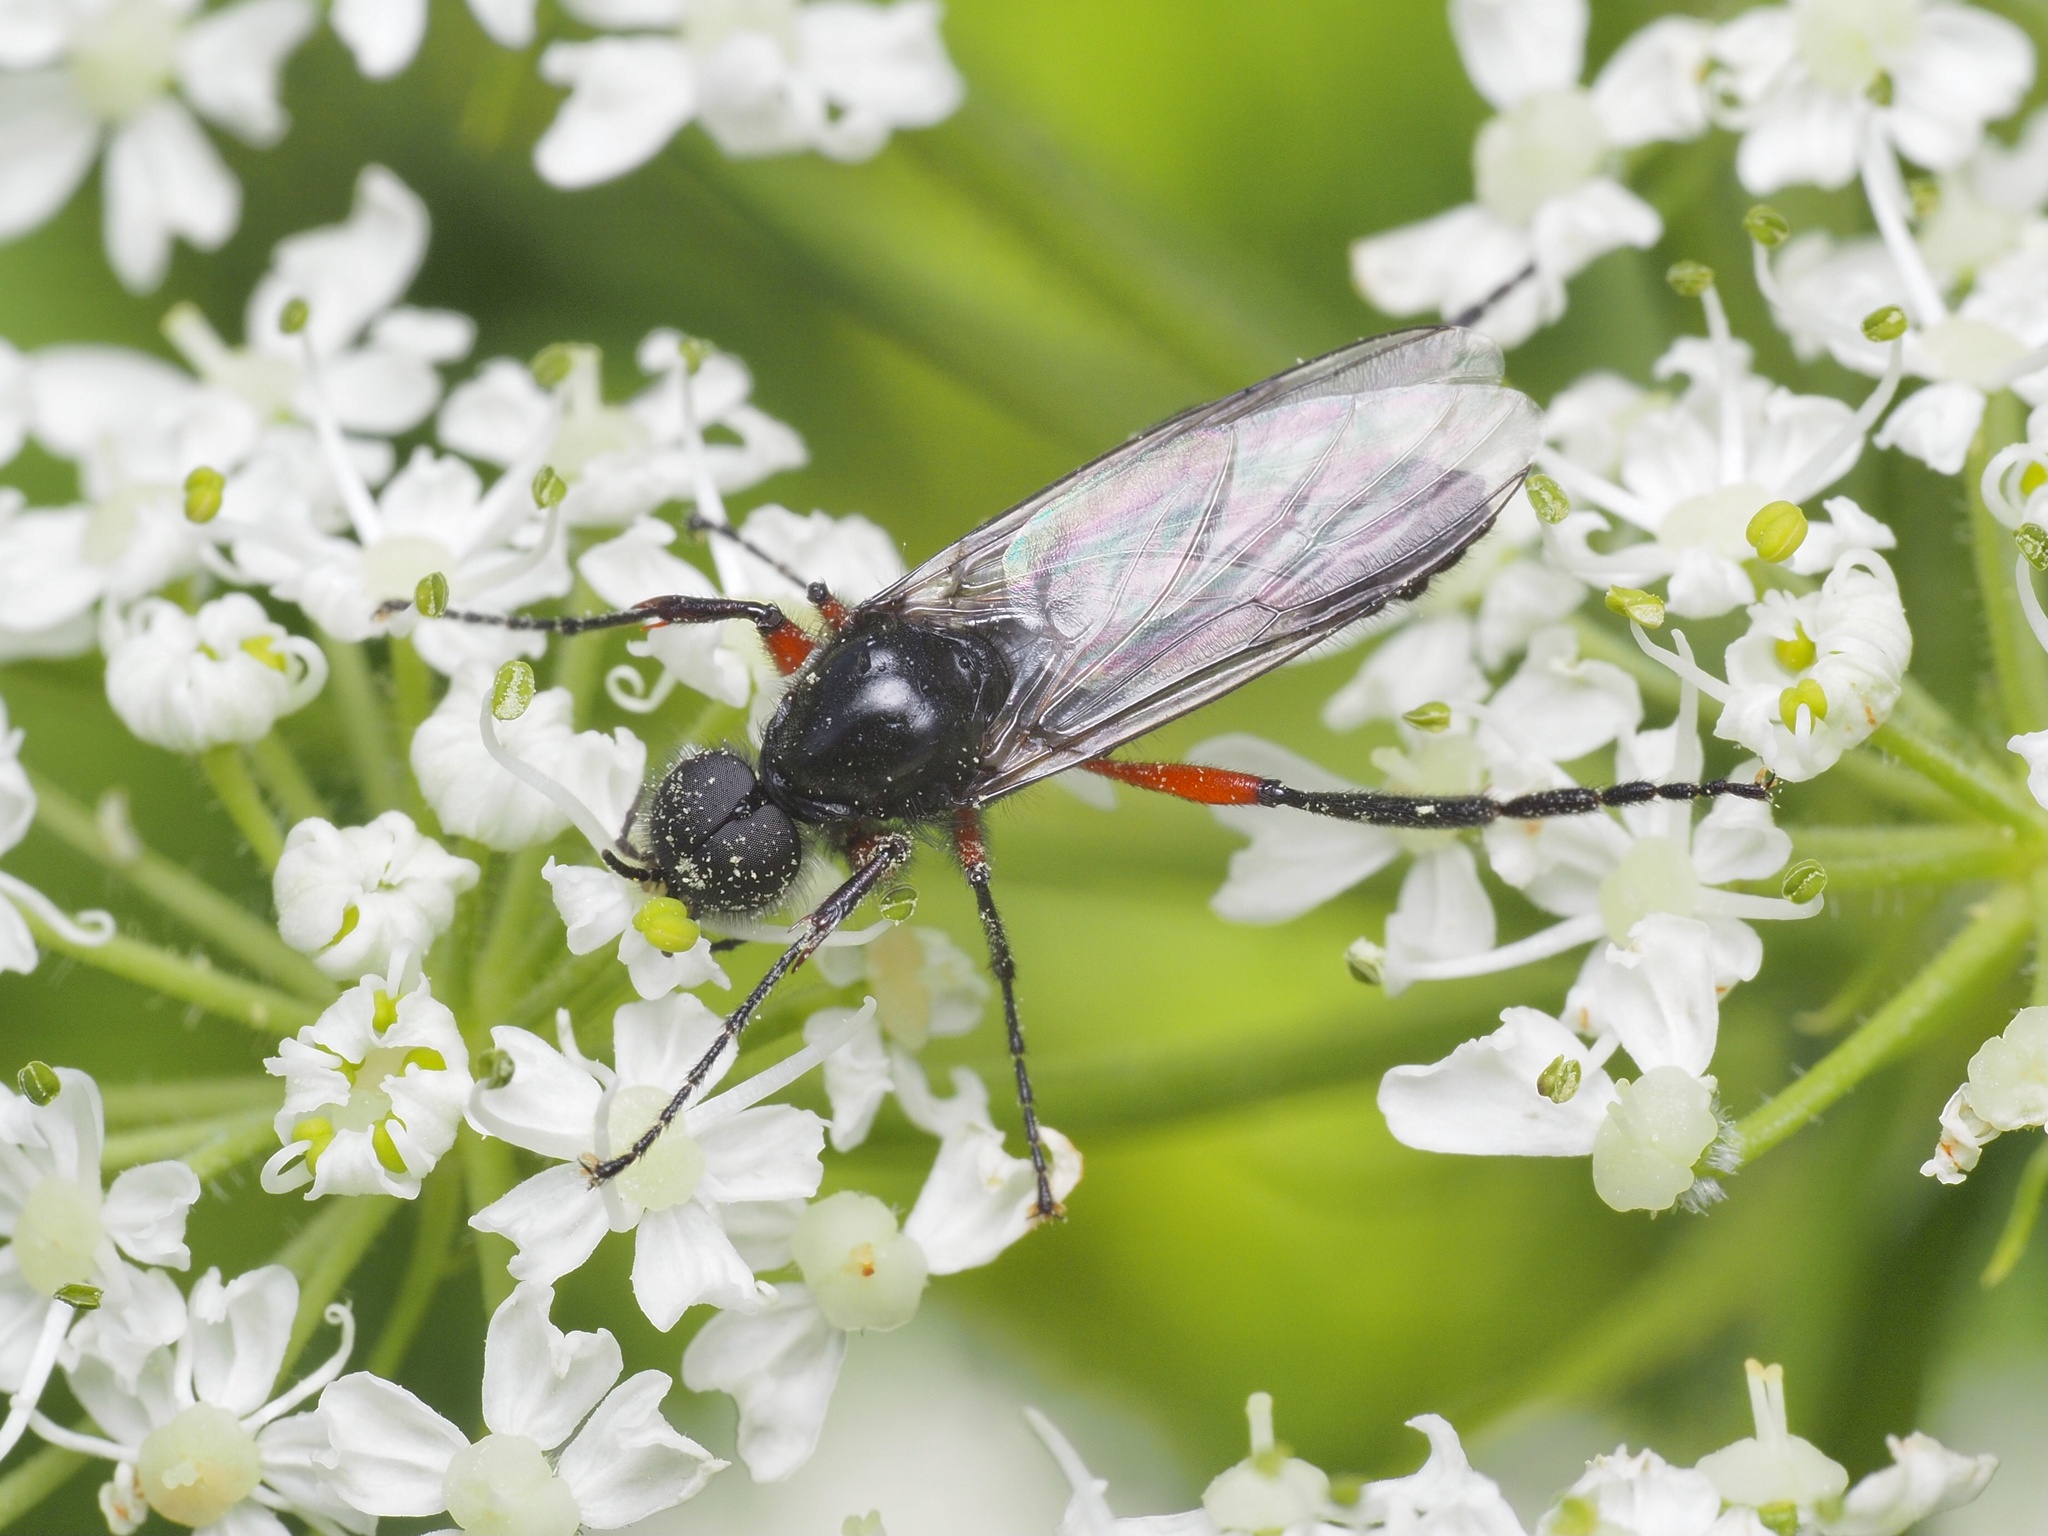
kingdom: Animalia
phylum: Arthropoda
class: Insecta
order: Diptera
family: Bibionidae
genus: Bibio
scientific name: Bibio pomonae
